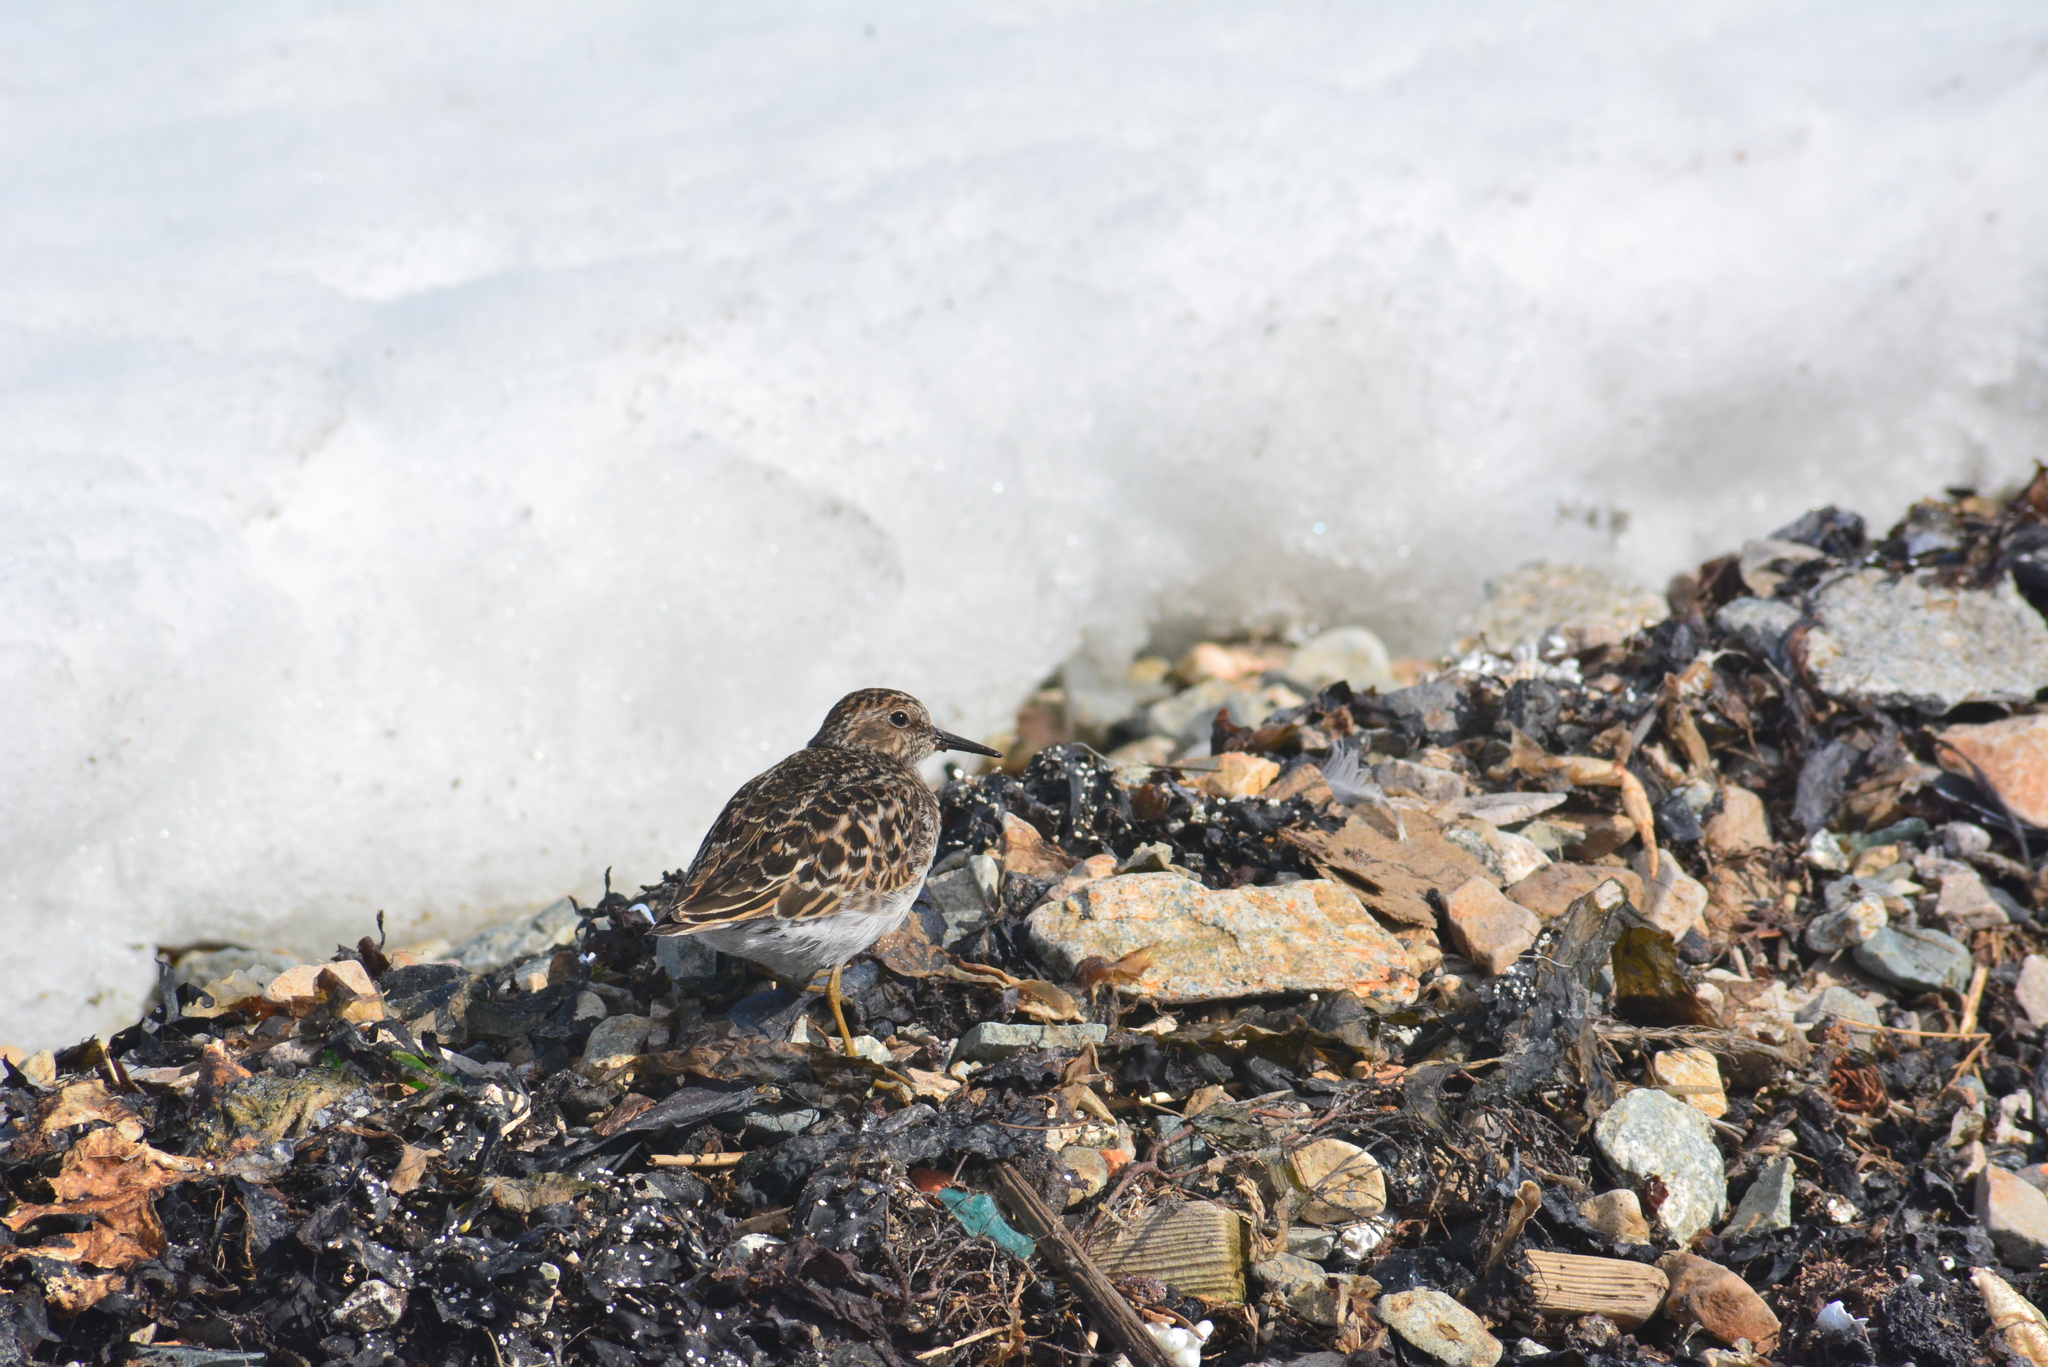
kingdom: Animalia
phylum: Chordata
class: Aves
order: Charadriiformes
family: Scolopacidae
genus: Calidris
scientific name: Calidris minutilla
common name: Least sandpiper
